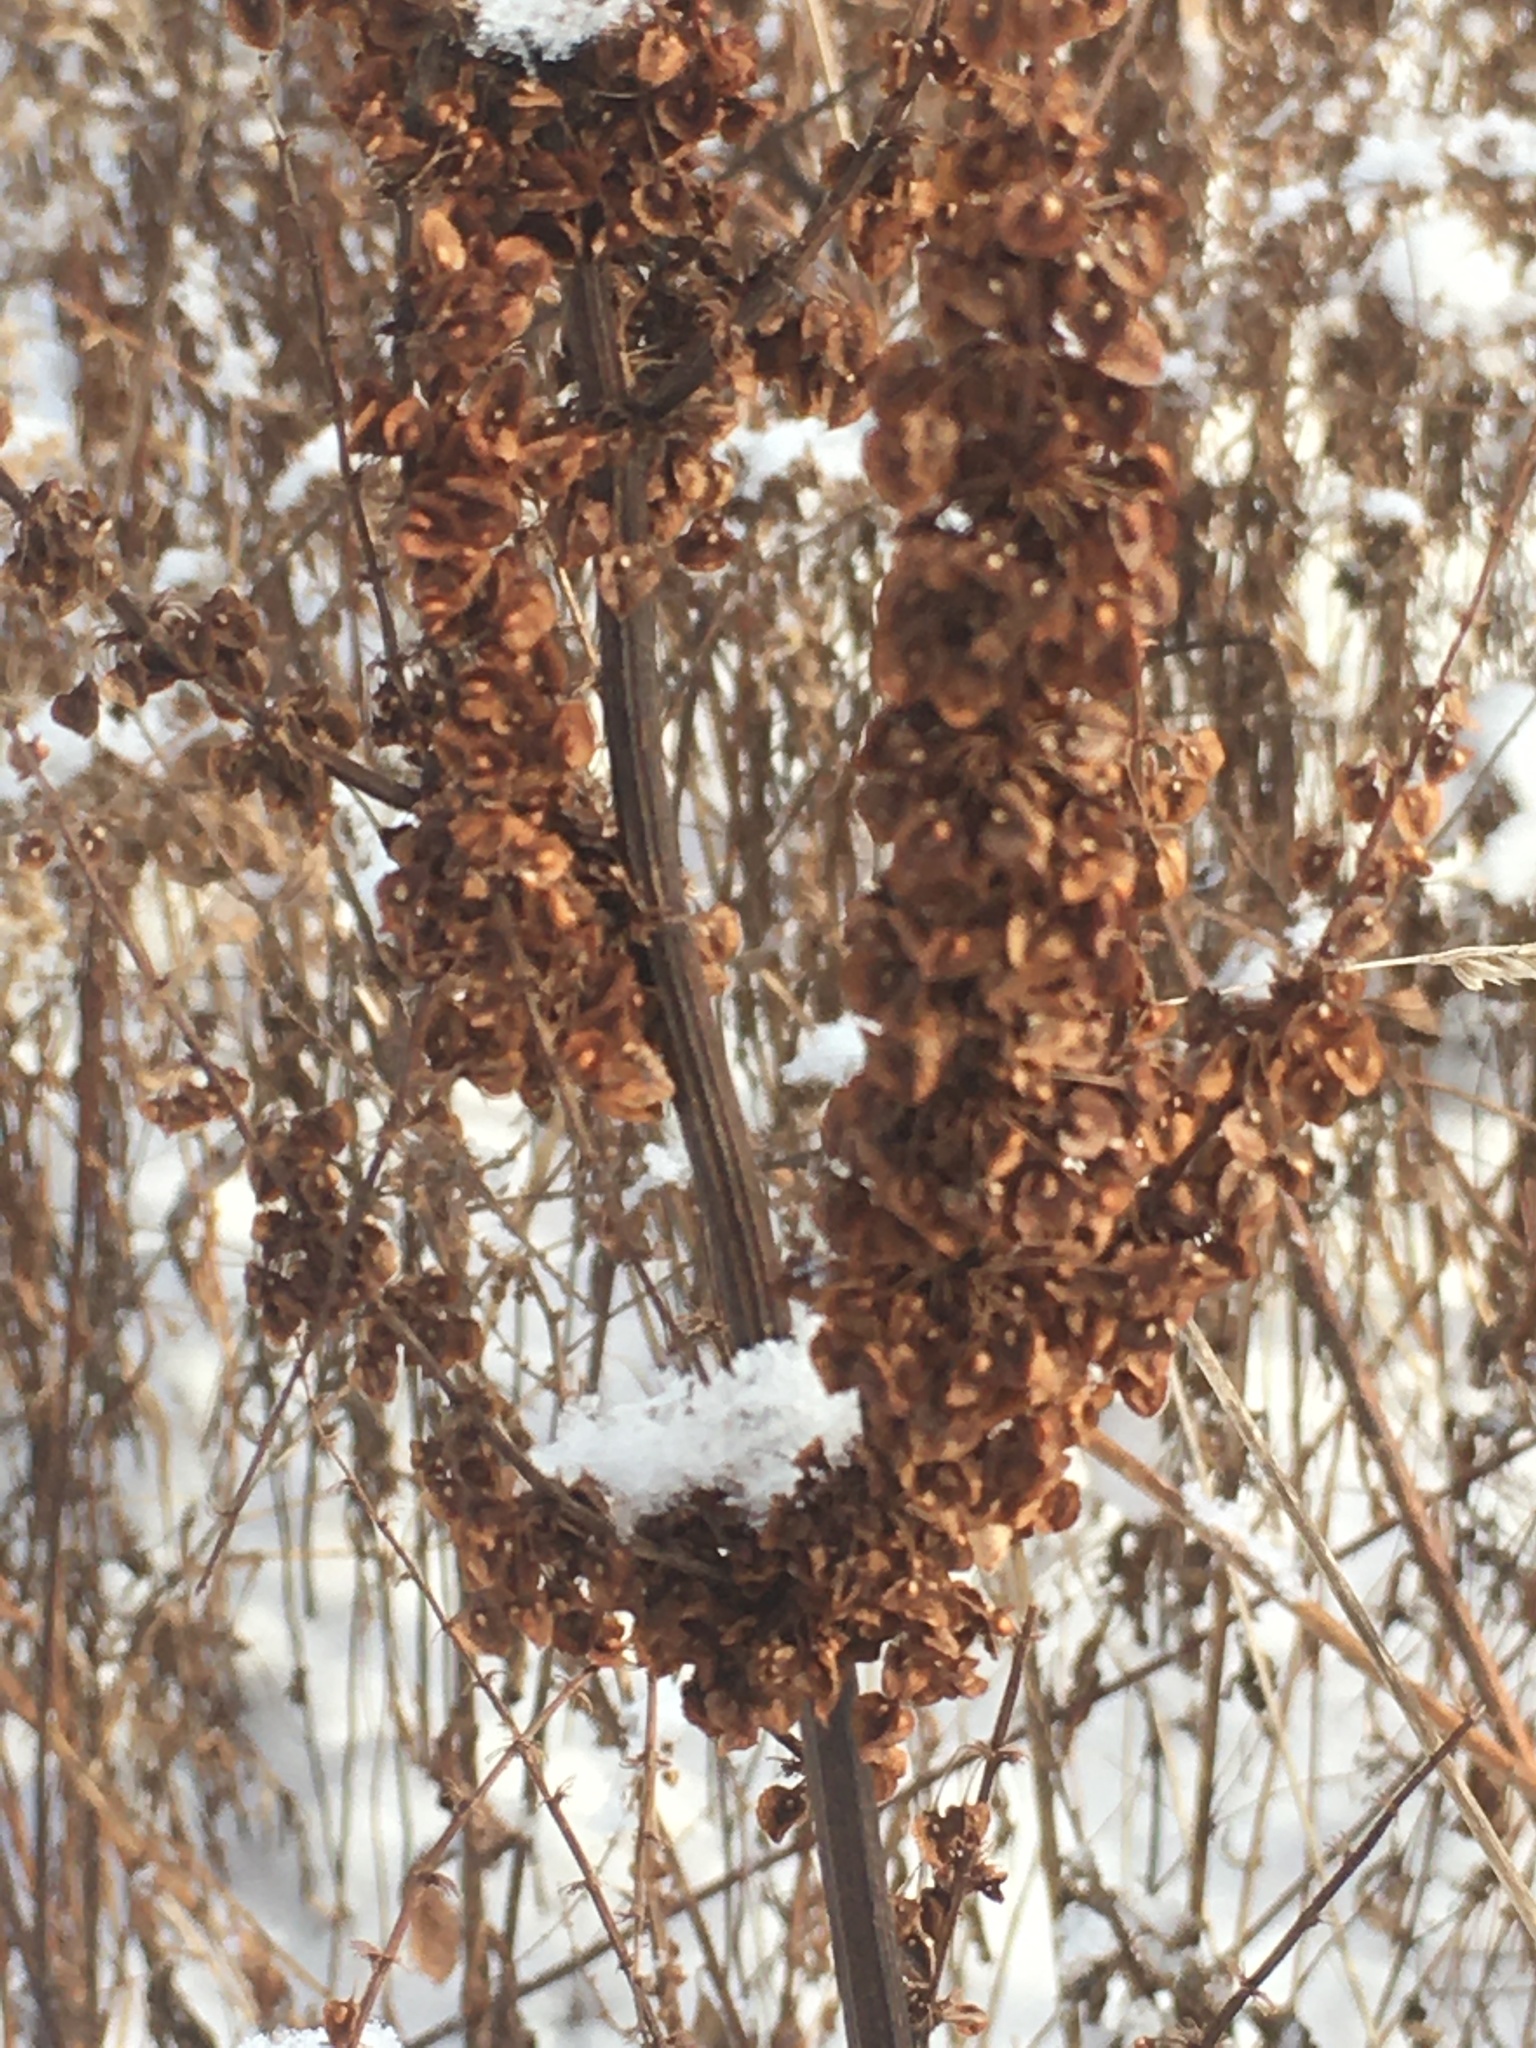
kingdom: Plantae
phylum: Tracheophyta
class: Magnoliopsida
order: Caryophyllales
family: Polygonaceae
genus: Rumex
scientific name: Rumex crispus
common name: Curled dock
